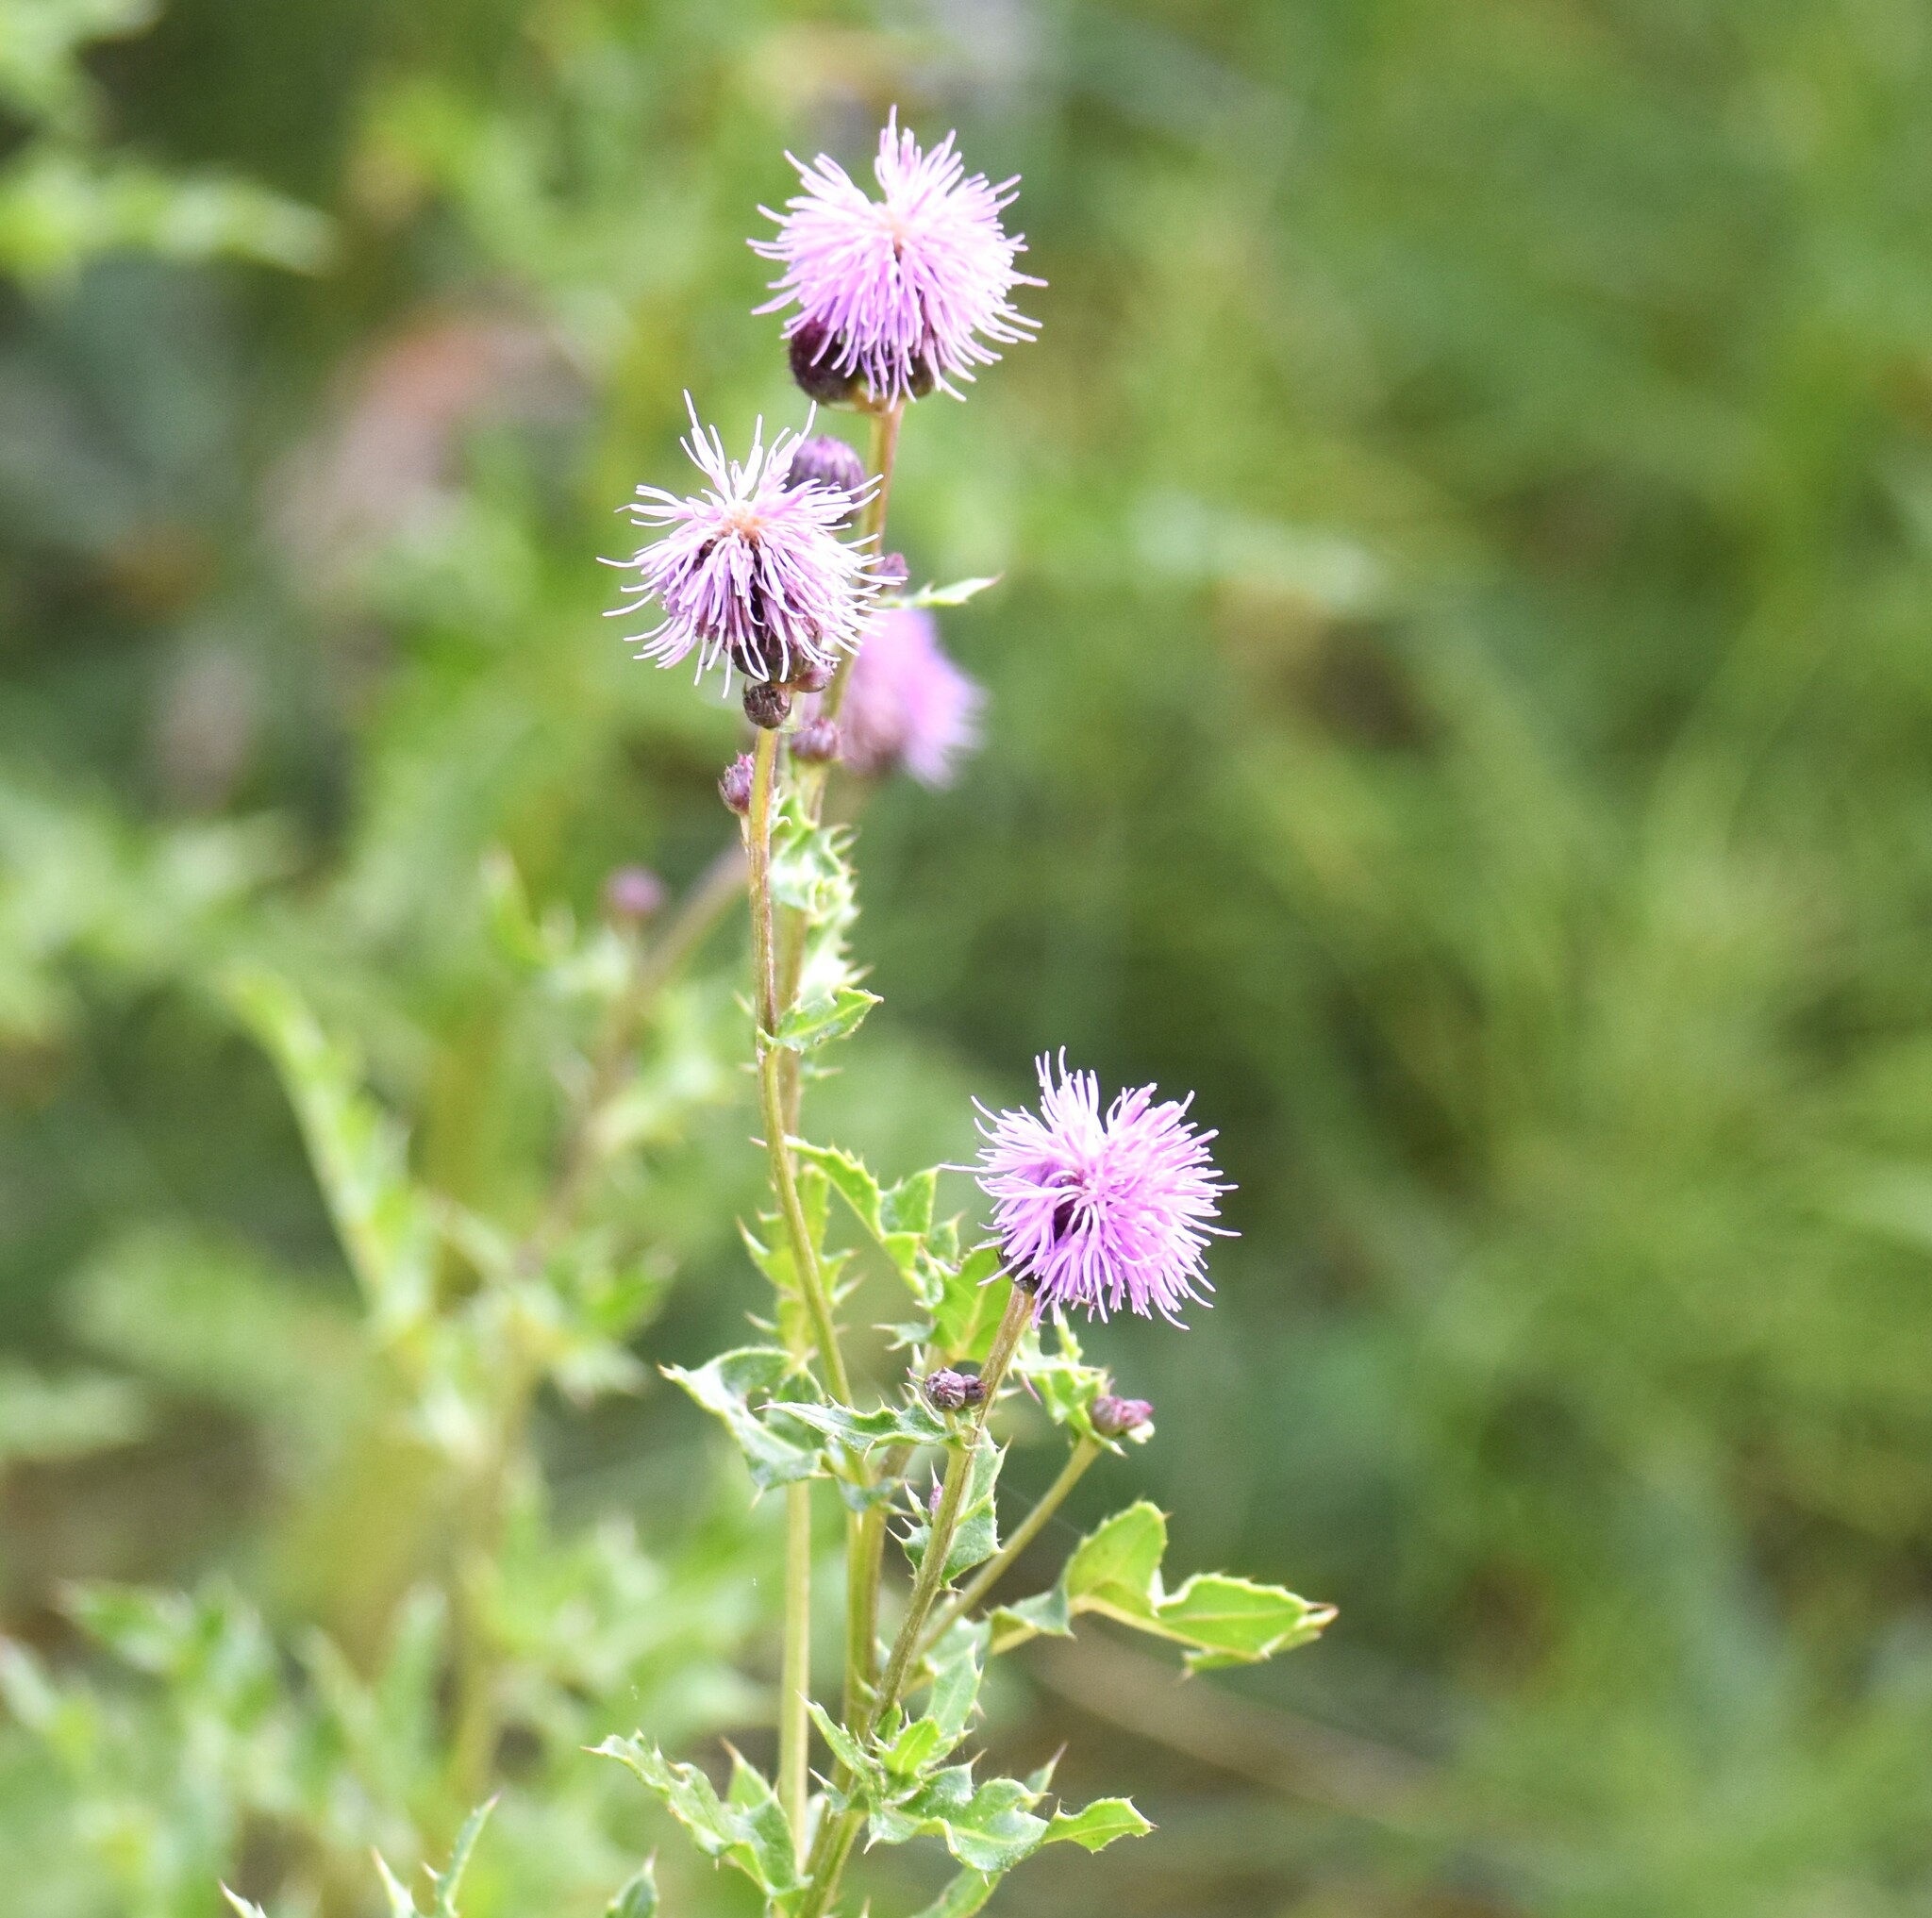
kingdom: Plantae
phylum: Tracheophyta
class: Magnoliopsida
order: Asterales
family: Asteraceae
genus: Cirsium
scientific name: Cirsium arvense
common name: Creeping thistle
